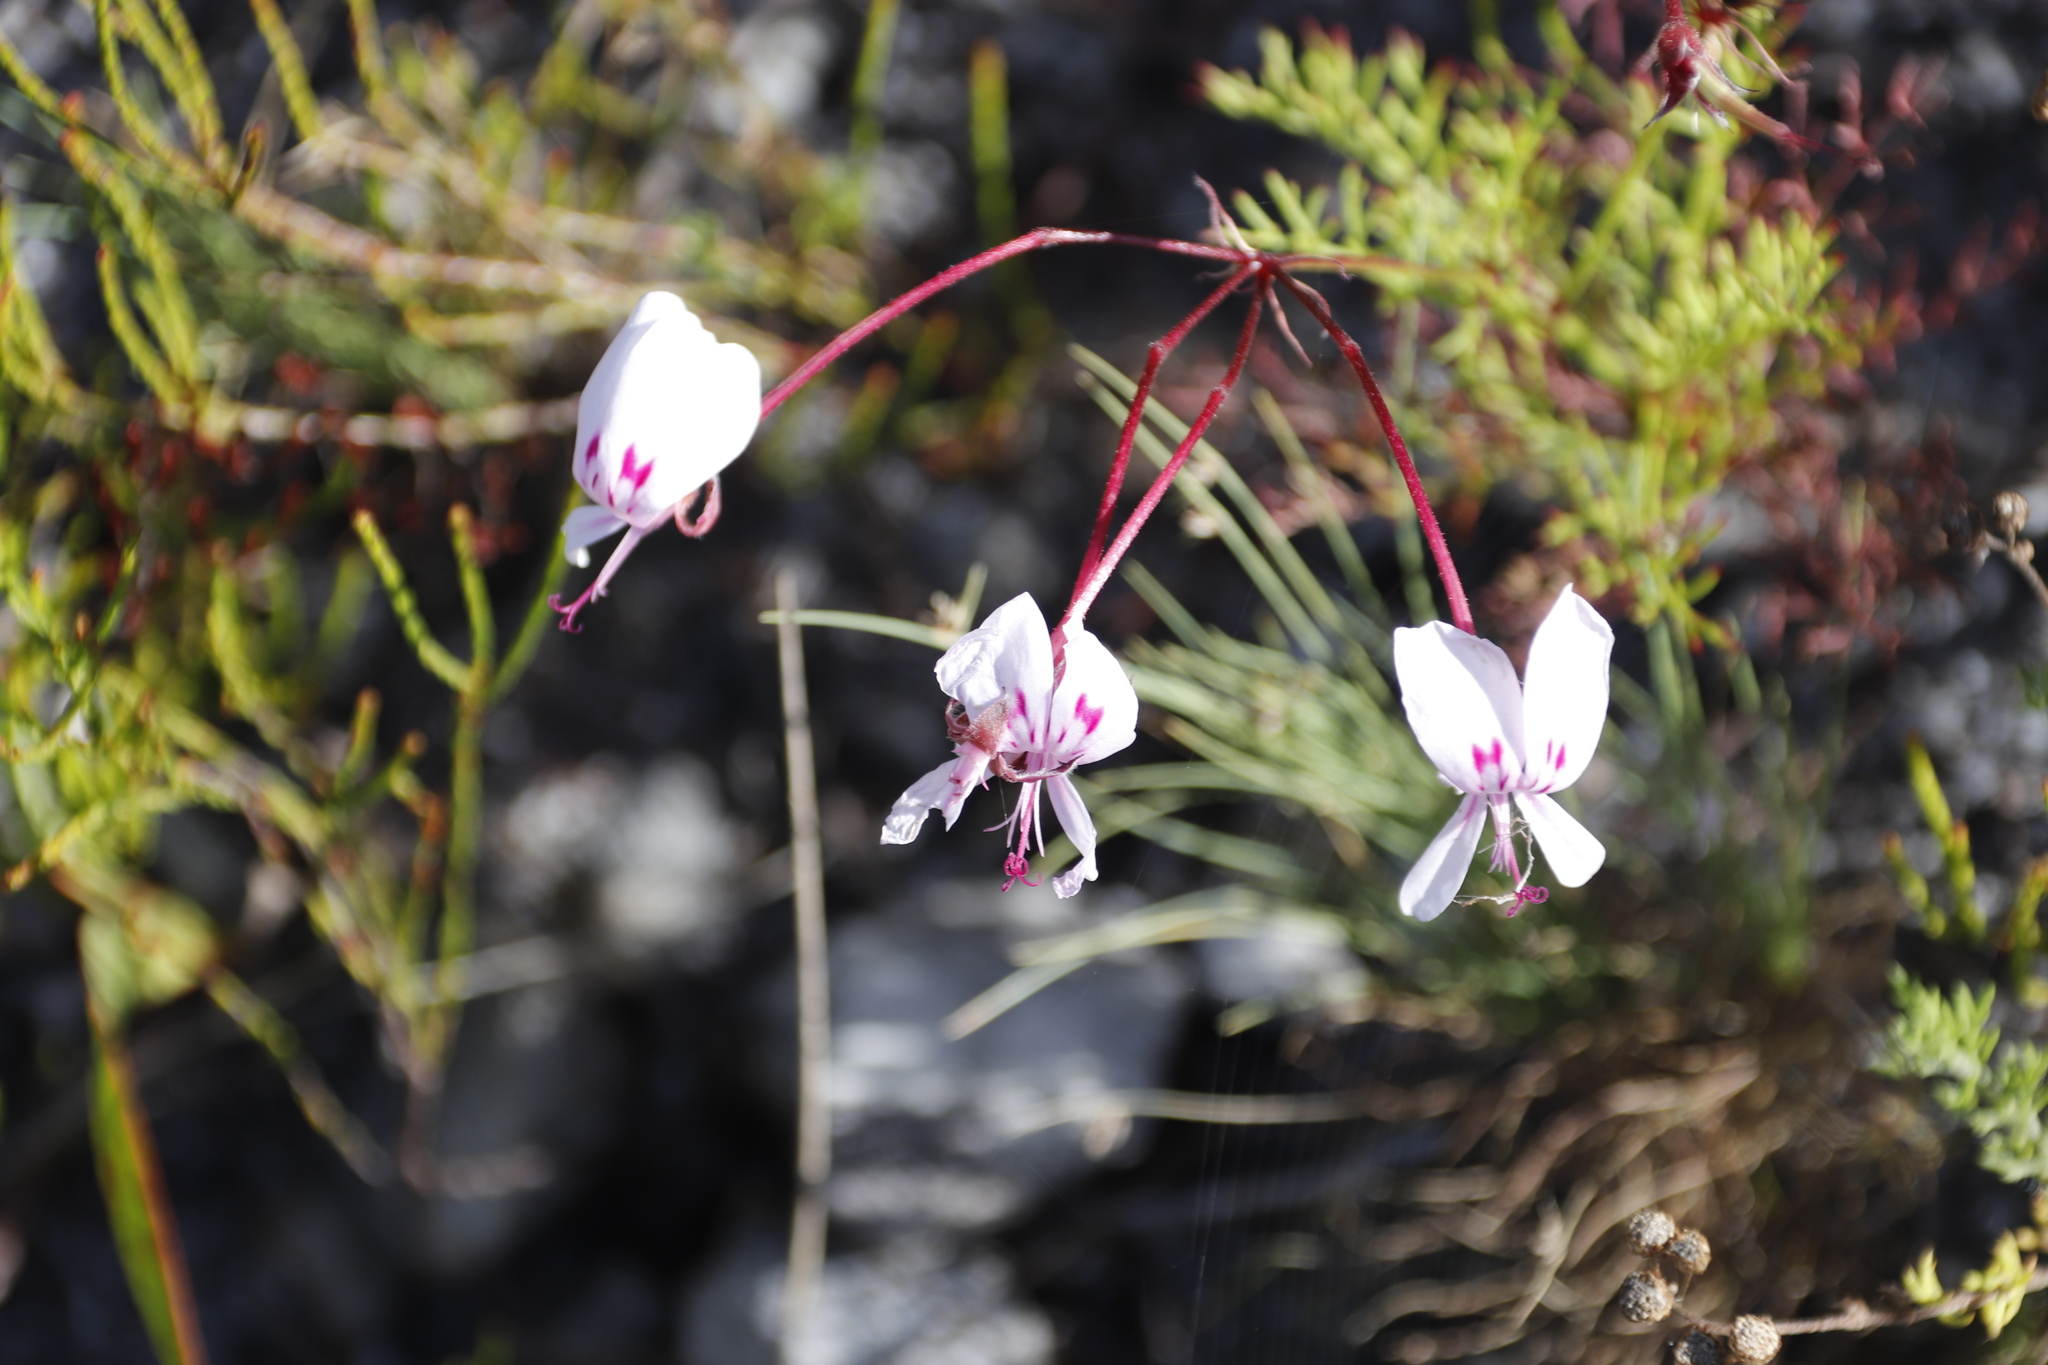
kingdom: Plantae
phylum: Tracheophyta
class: Magnoliopsida
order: Geraniales
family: Geraniaceae
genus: Pelargonium
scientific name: Pelargonium artemisiifolium
